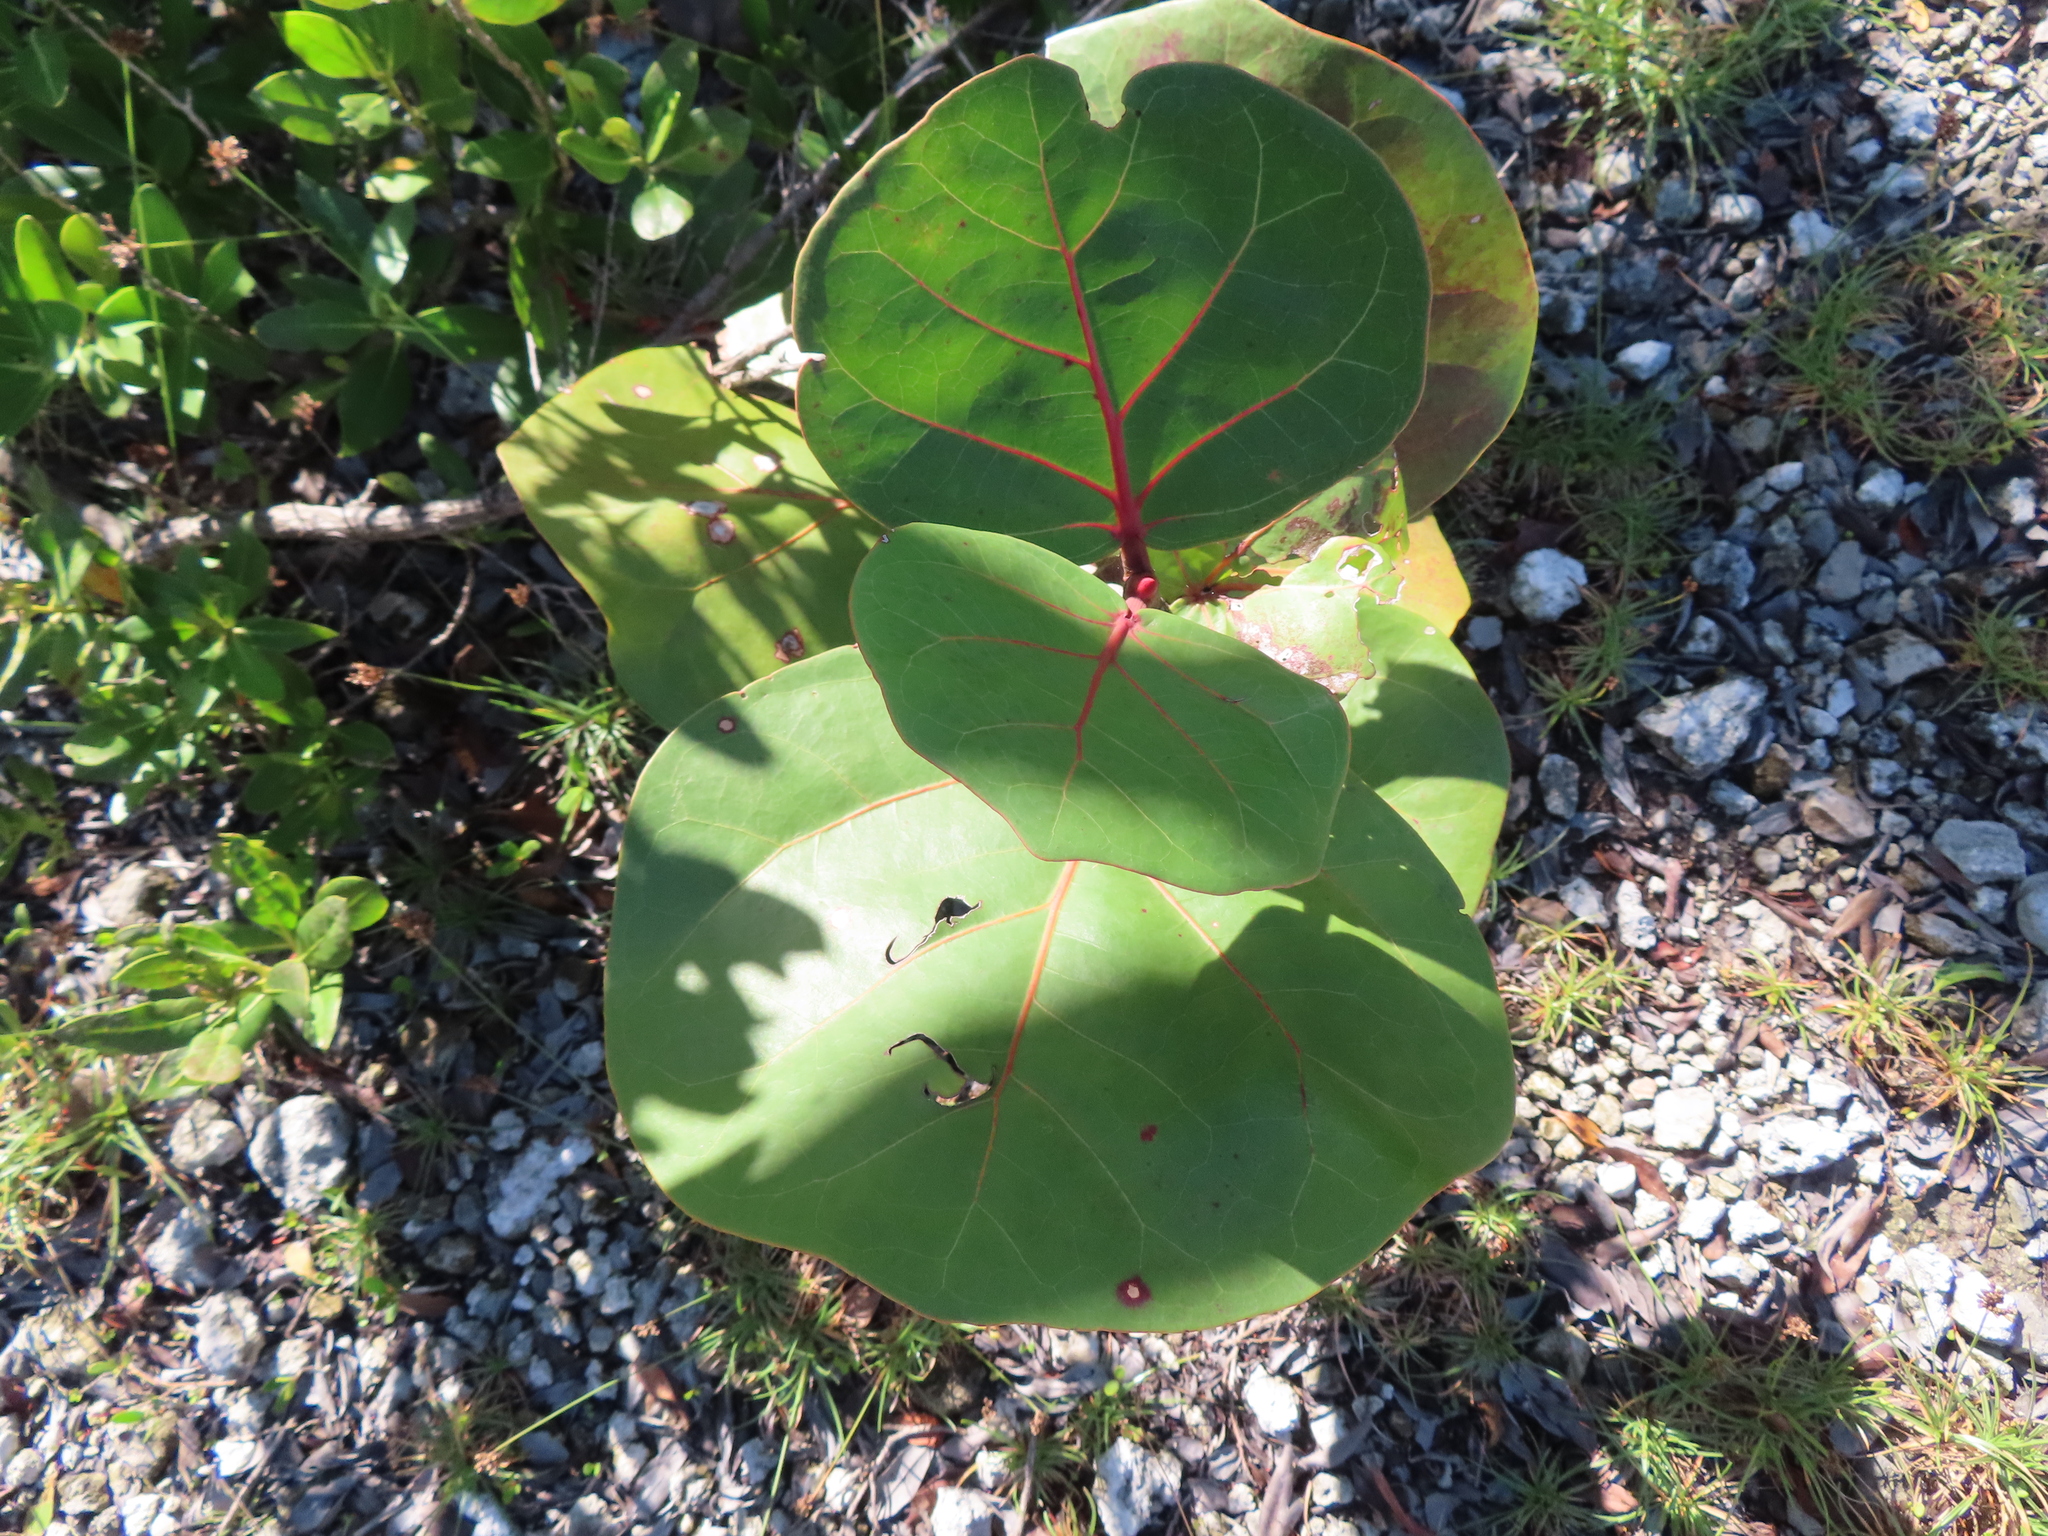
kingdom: Plantae
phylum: Tracheophyta
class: Magnoliopsida
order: Caryophyllales
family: Polygonaceae
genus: Coccoloba
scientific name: Coccoloba uvifera
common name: Seagrape
